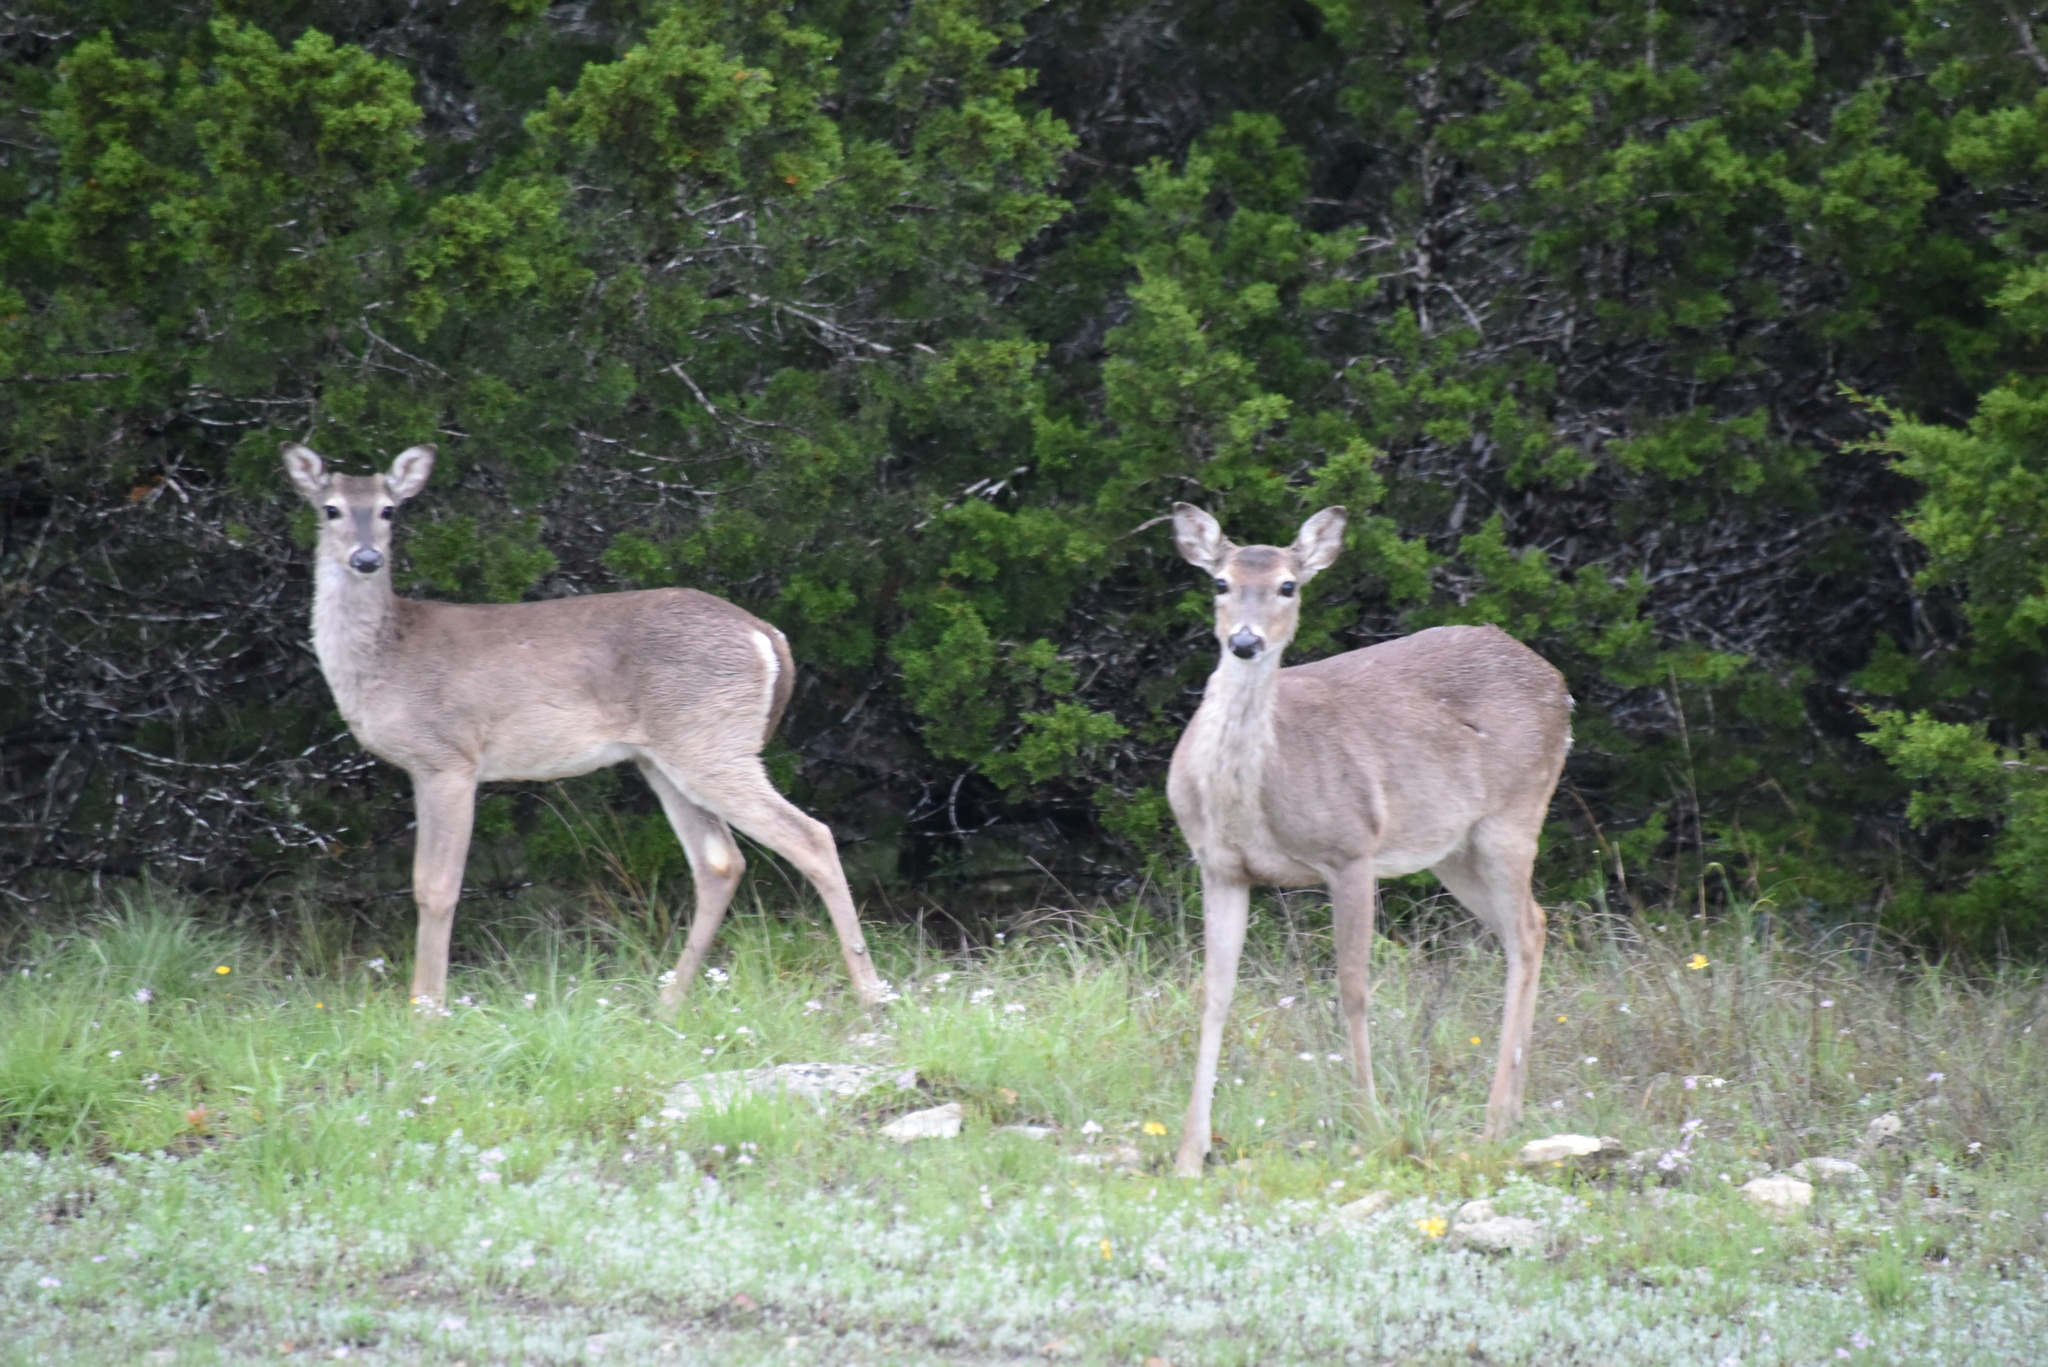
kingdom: Animalia
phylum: Chordata
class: Mammalia
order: Artiodactyla
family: Cervidae
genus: Odocoileus
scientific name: Odocoileus virginianus
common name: White-tailed deer
